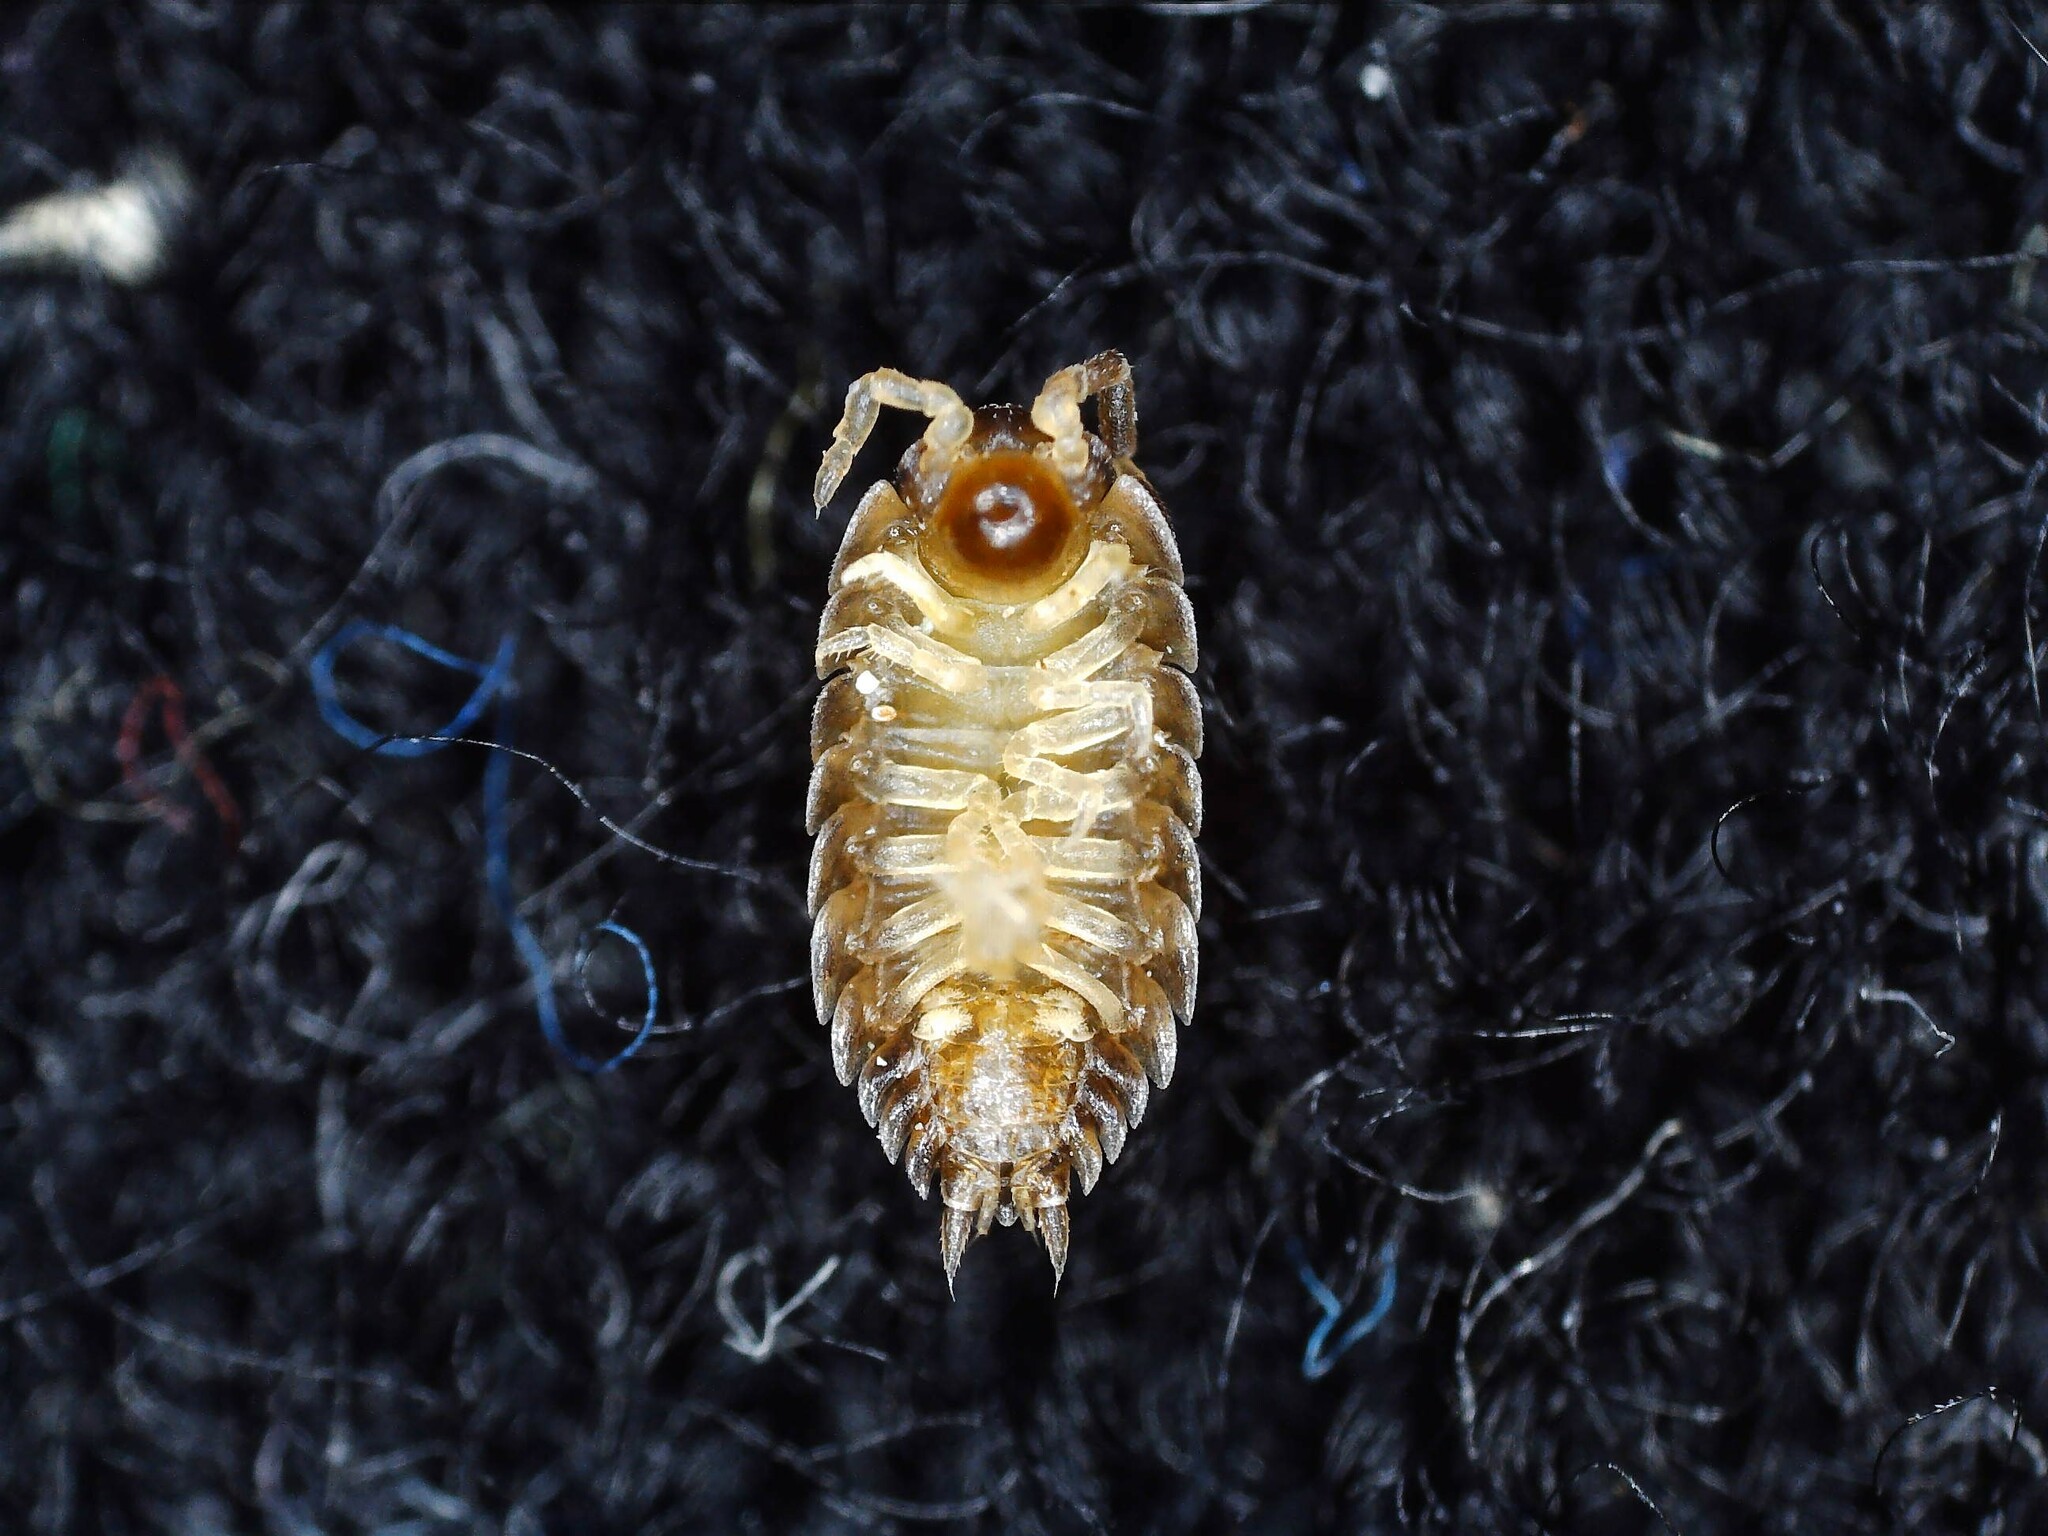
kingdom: Animalia
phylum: Arthropoda
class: Malacostraca
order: Isopoda
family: Porcellionidae
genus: Porcellio
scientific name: Porcellio scaber
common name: Common rough woodlouse
